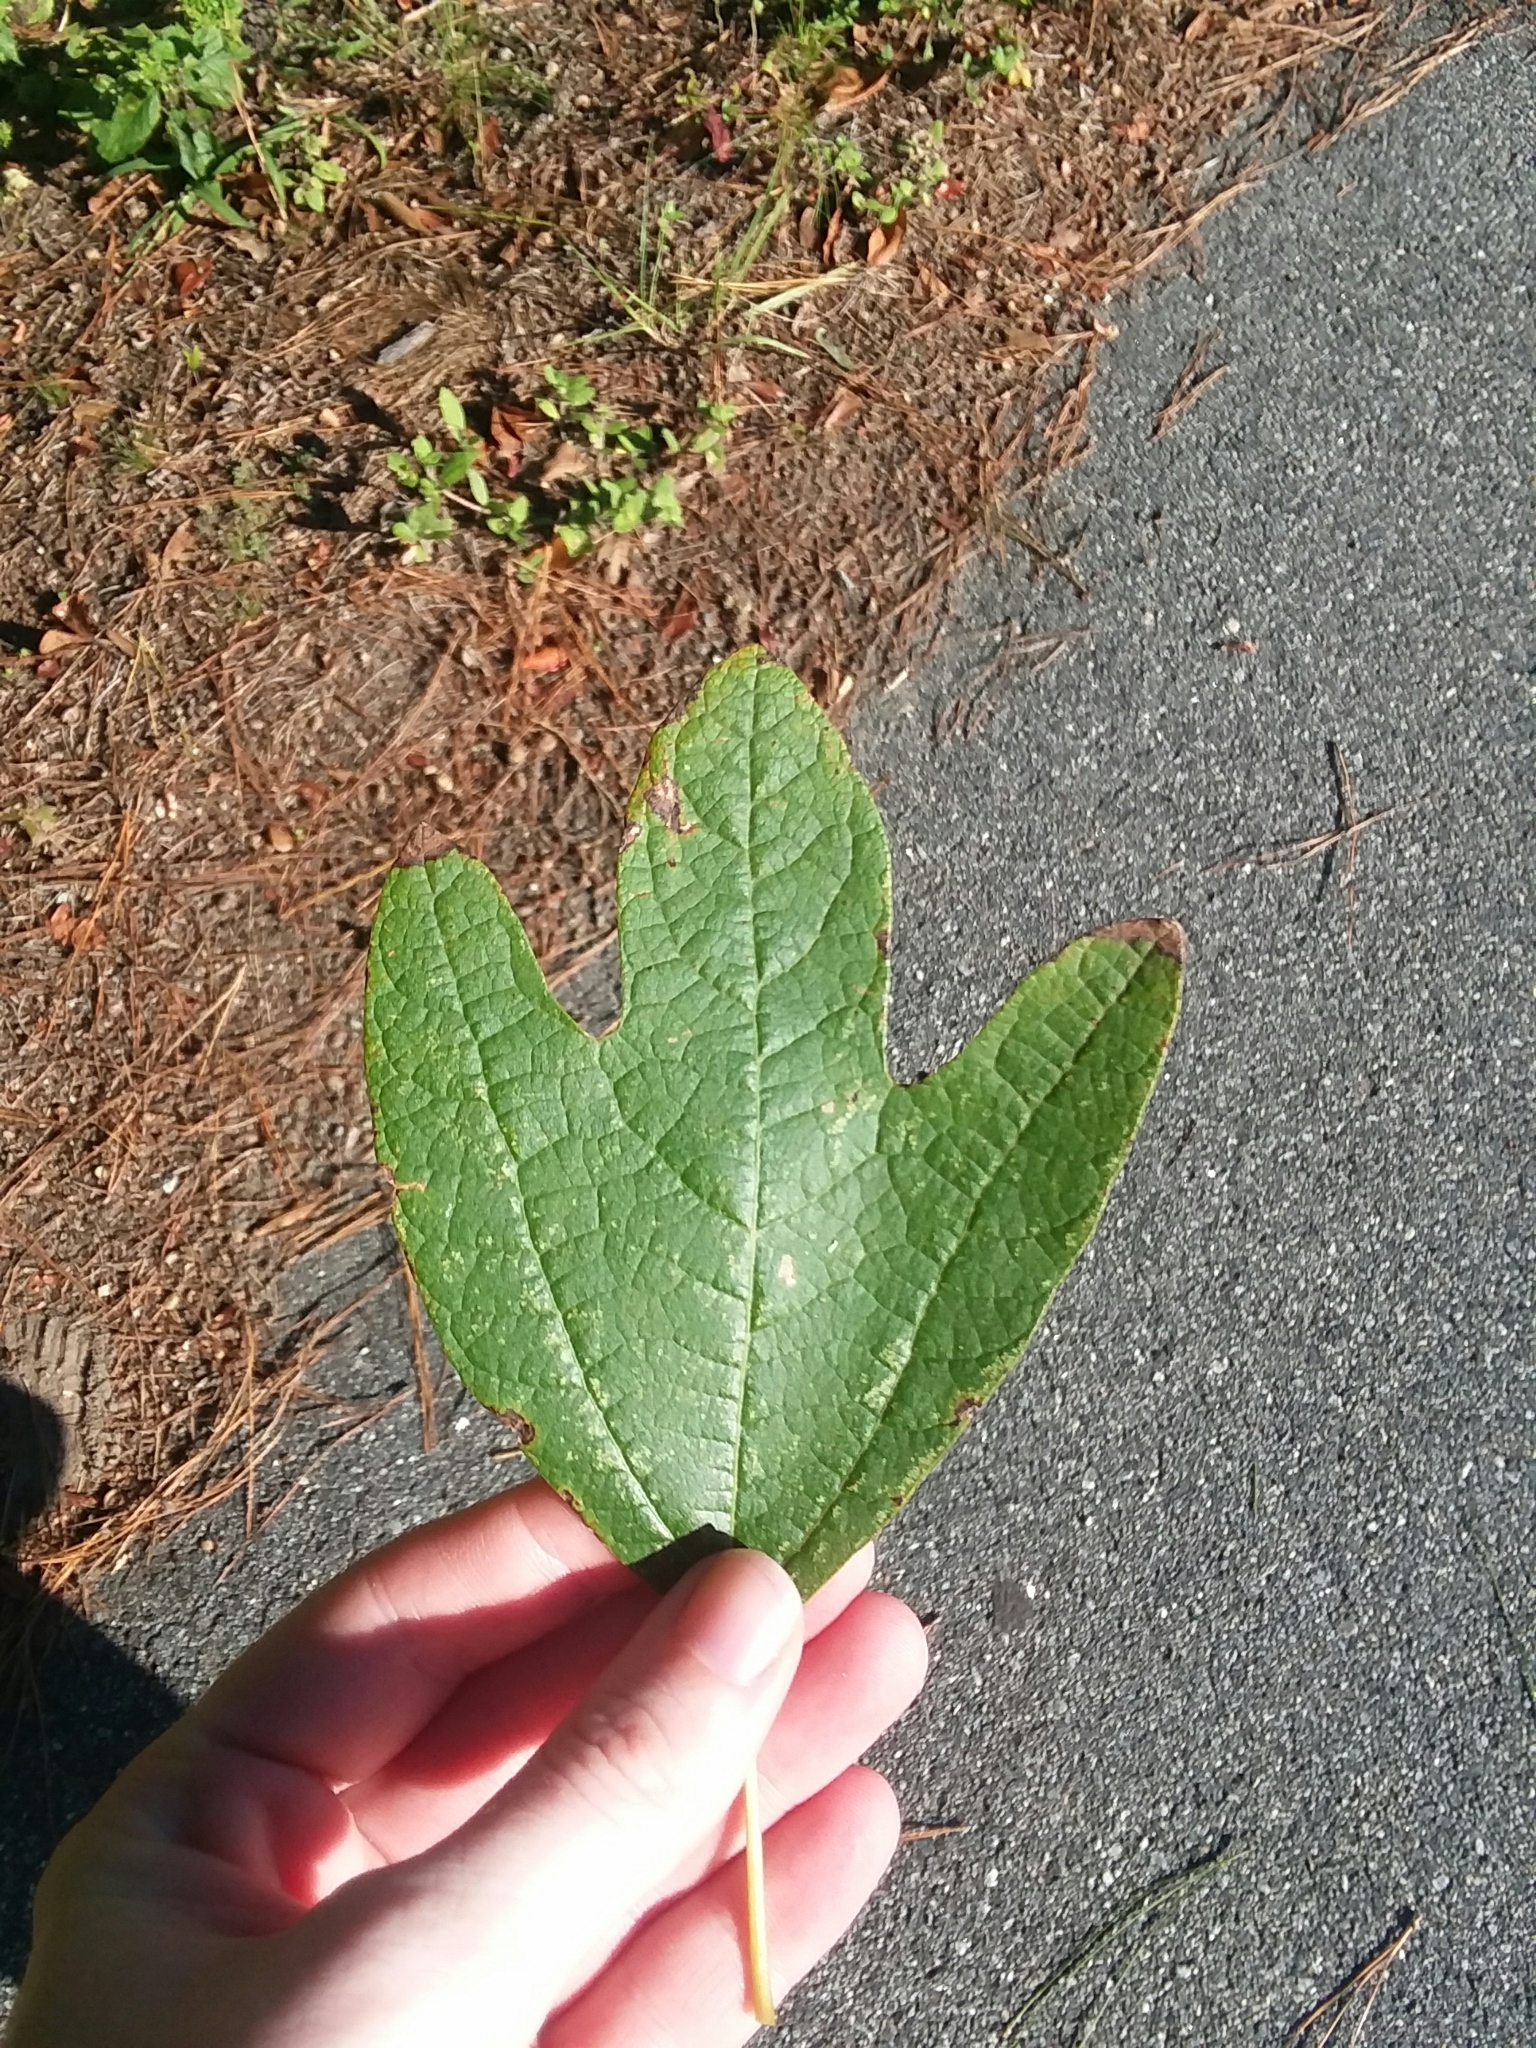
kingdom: Plantae
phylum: Tracheophyta
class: Magnoliopsida
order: Laurales
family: Lauraceae
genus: Sassafras
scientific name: Sassafras albidum
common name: Sassafras
